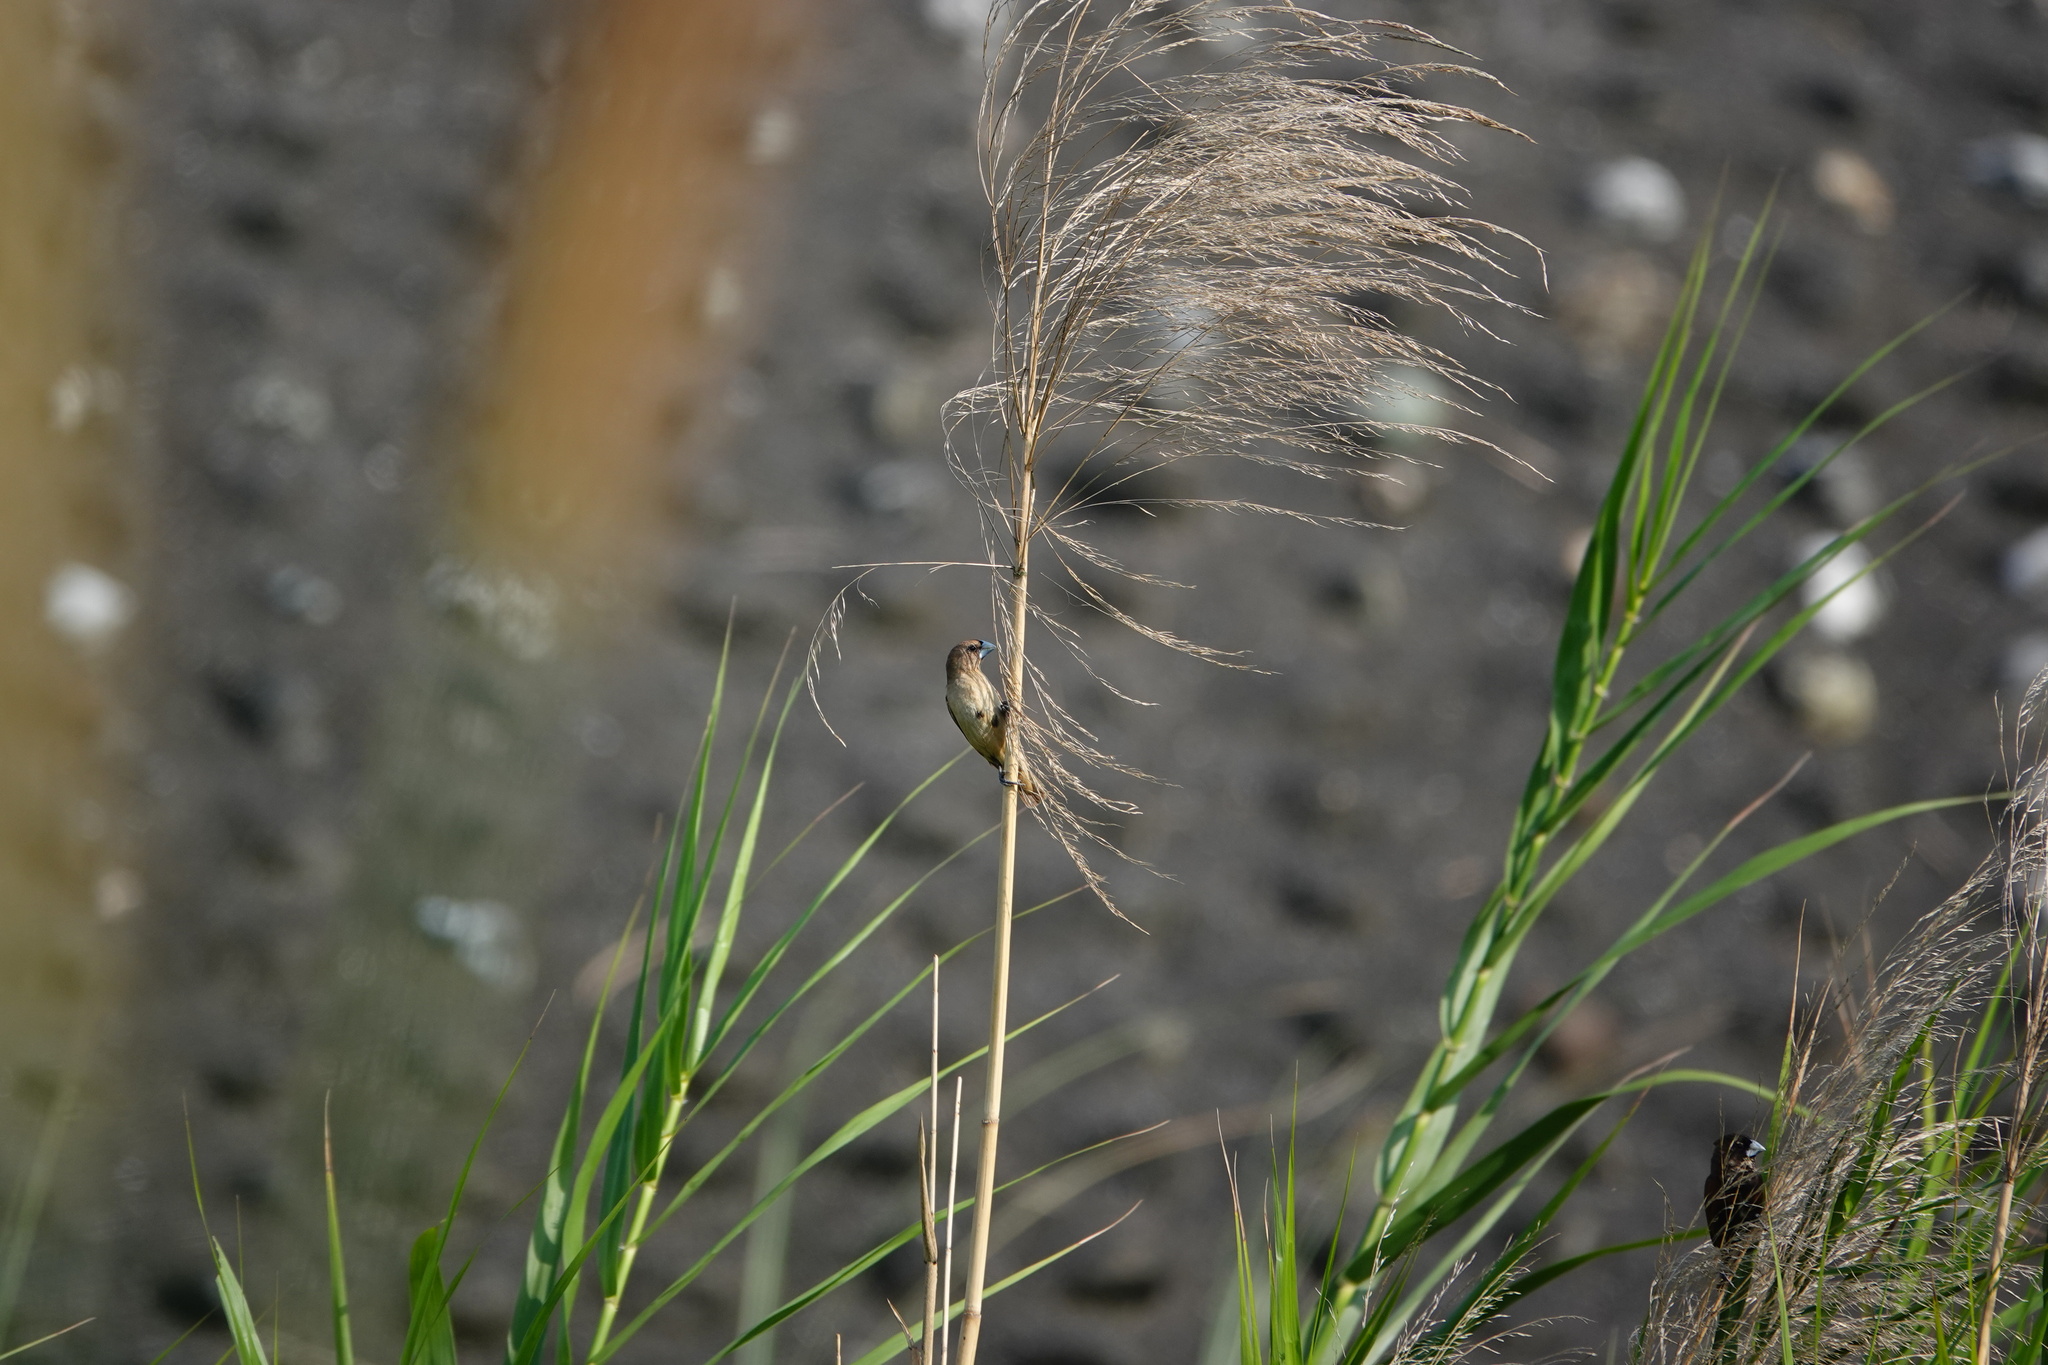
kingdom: Animalia
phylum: Chordata
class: Aves
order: Passeriformes
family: Estrildidae
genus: Lonchura
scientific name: Lonchura punctulata
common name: Scaly-breasted munia
